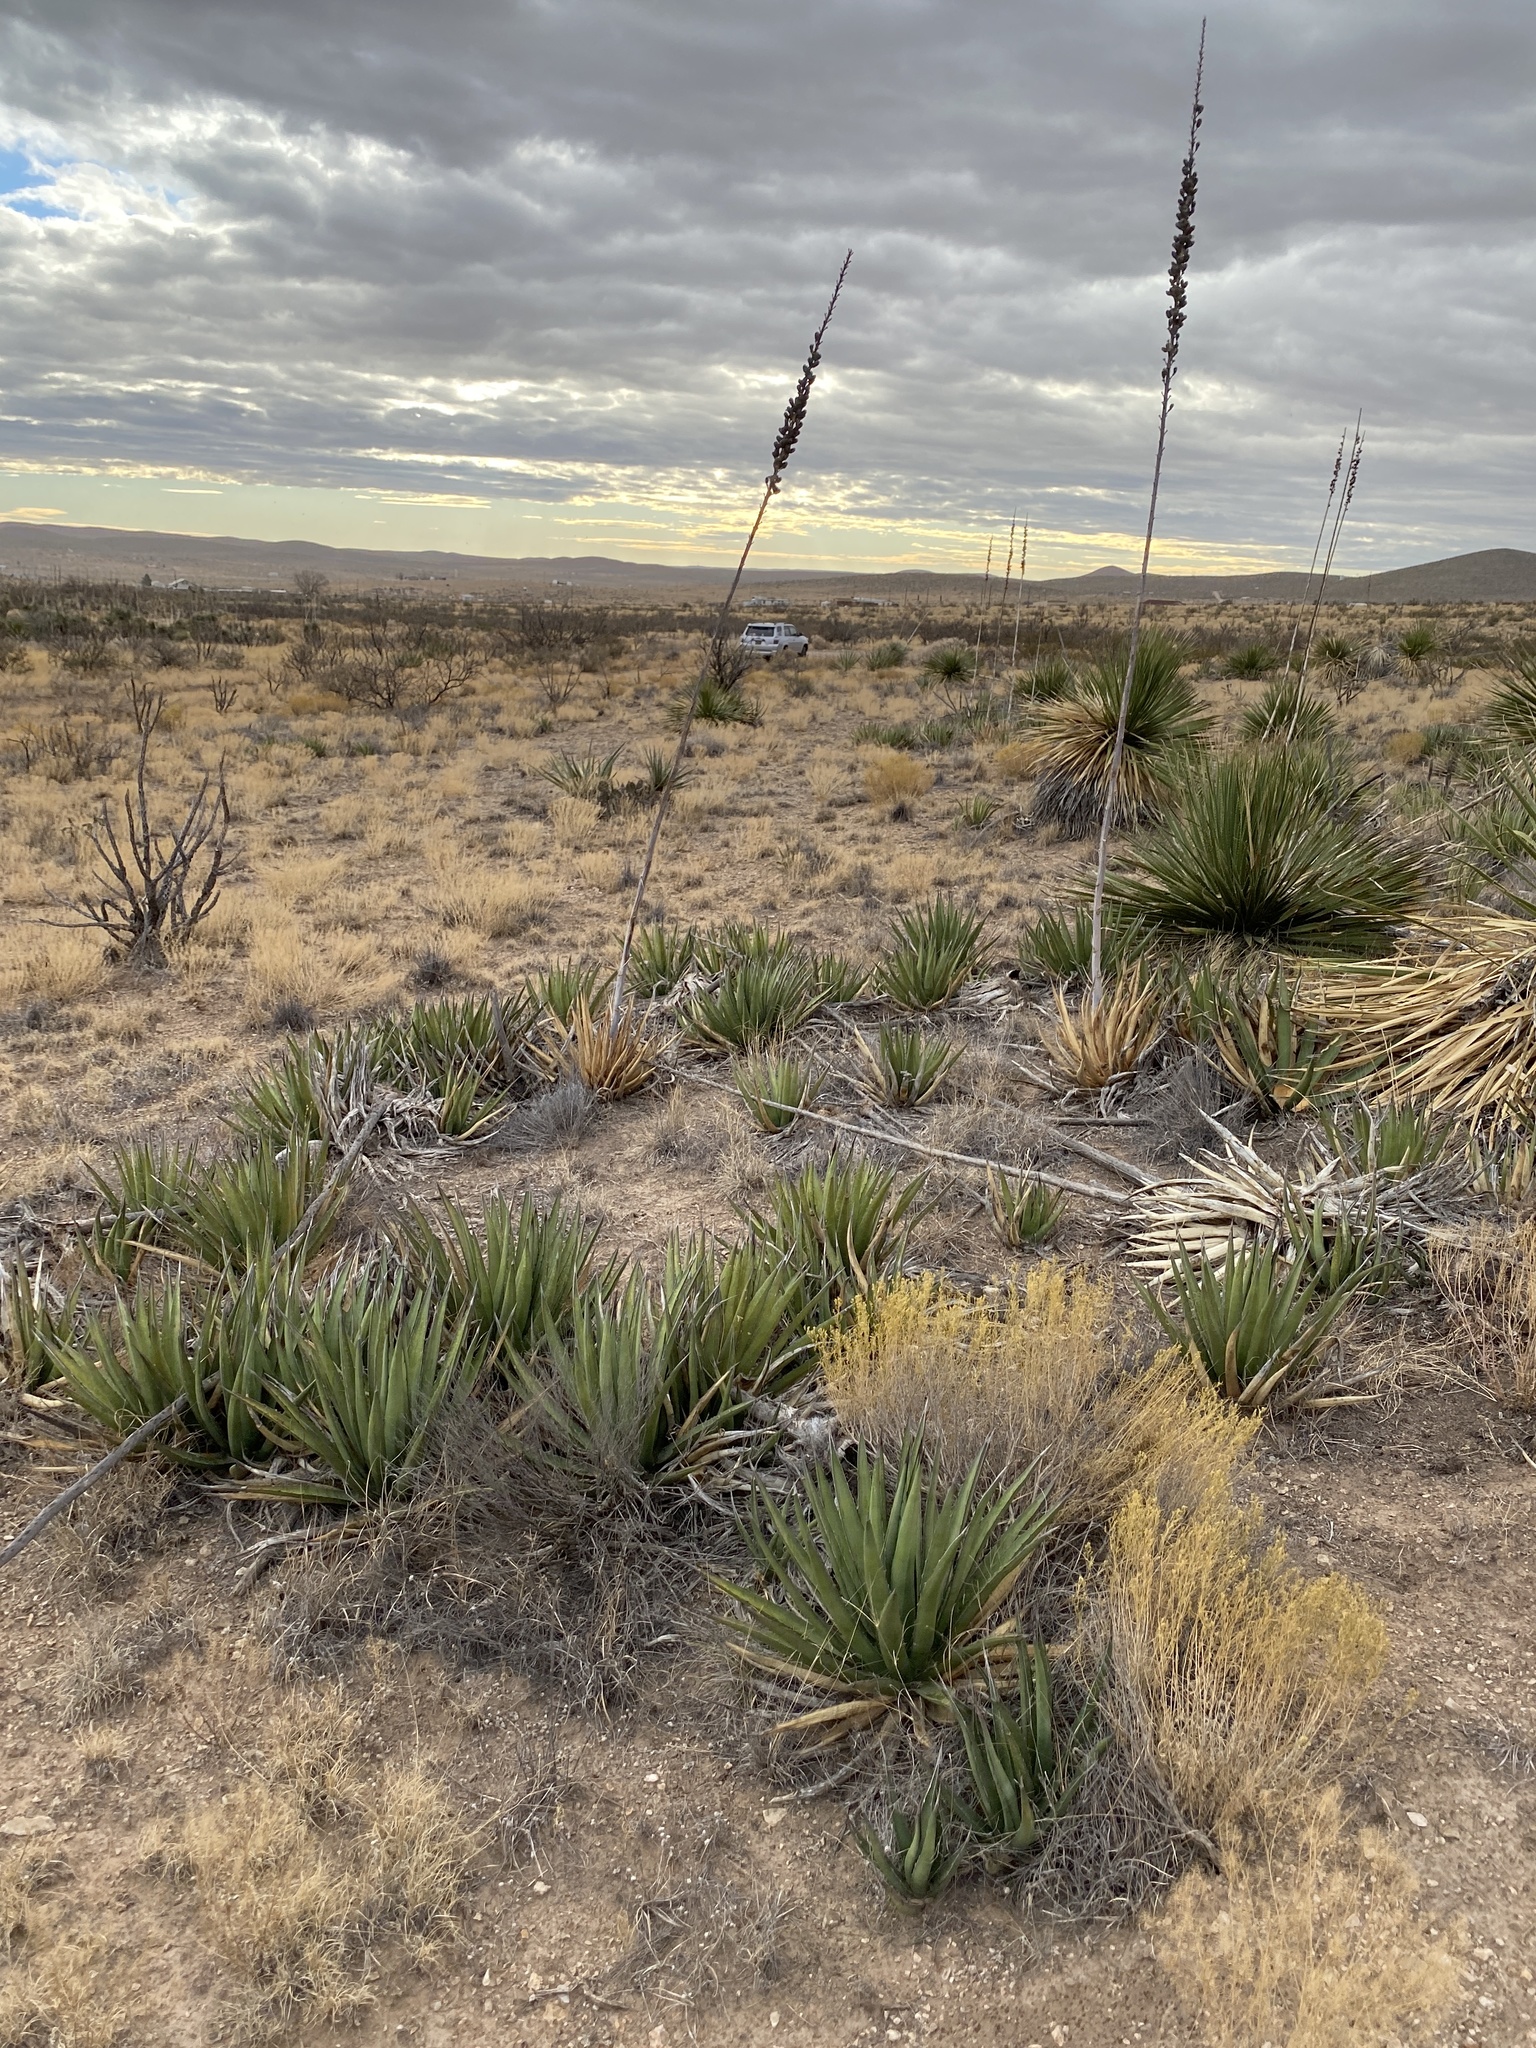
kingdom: Plantae
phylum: Tracheophyta
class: Liliopsida
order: Asparagales
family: Asparagaceae
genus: Agave
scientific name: Agave lechuguilla
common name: Lecheguilla agave
